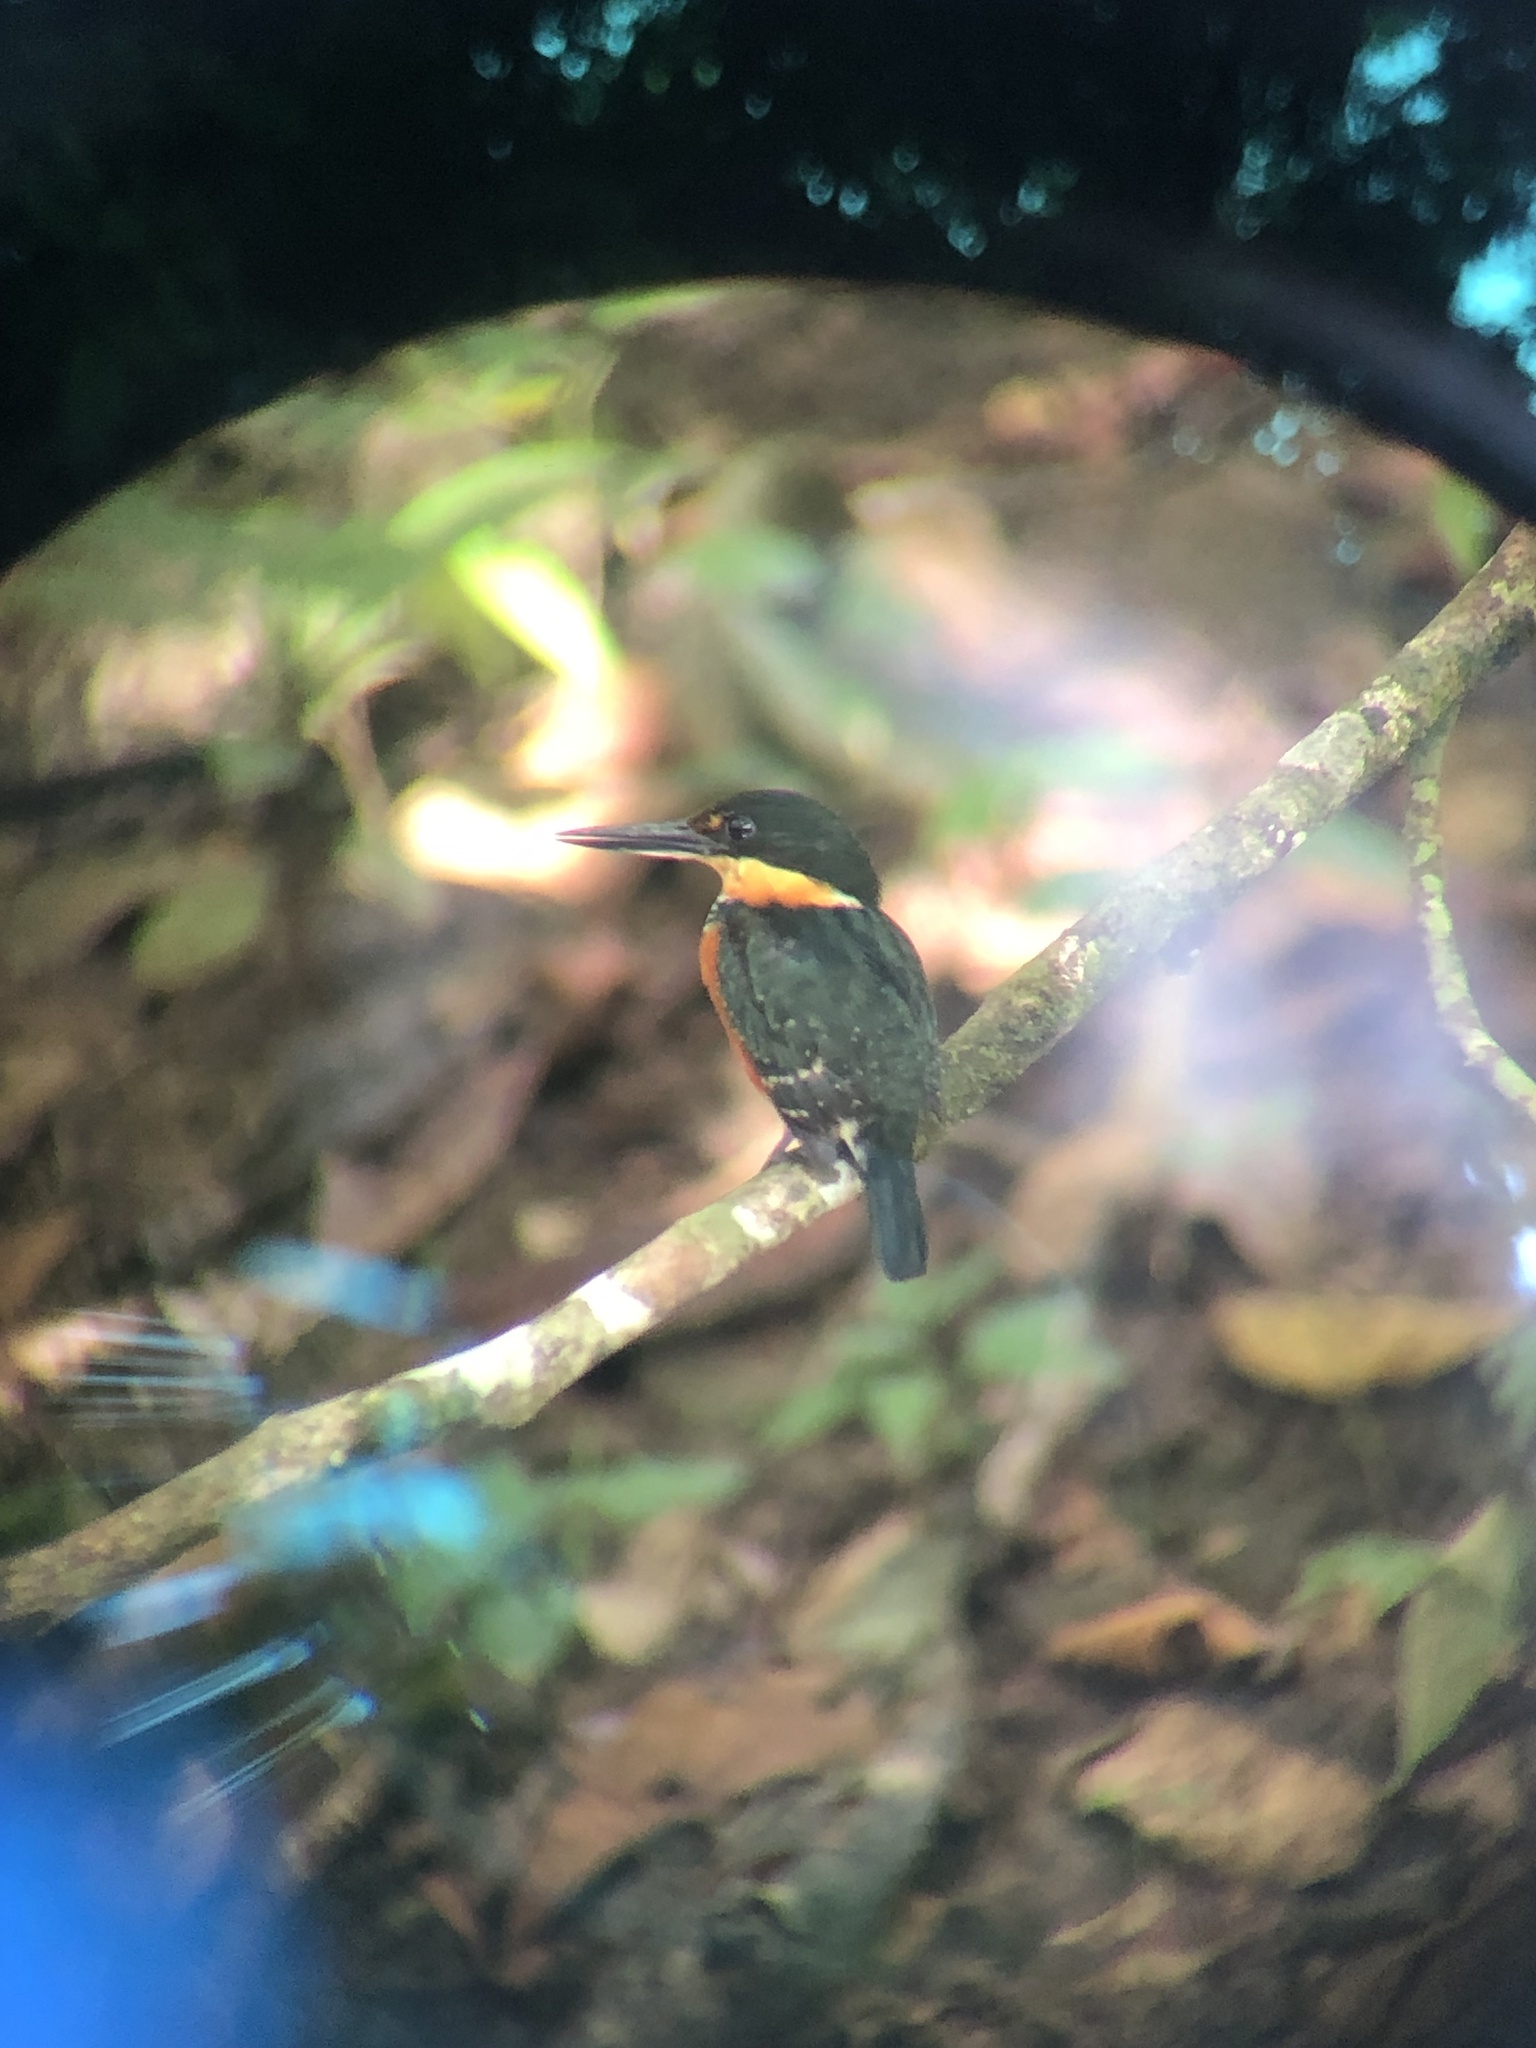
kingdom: Animalia
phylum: Chordata
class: Aves
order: Coraciiformes
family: Alcedinidae
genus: Chloroceryle
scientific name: Chloroceryle aenea
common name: American pygmy kingfisher
